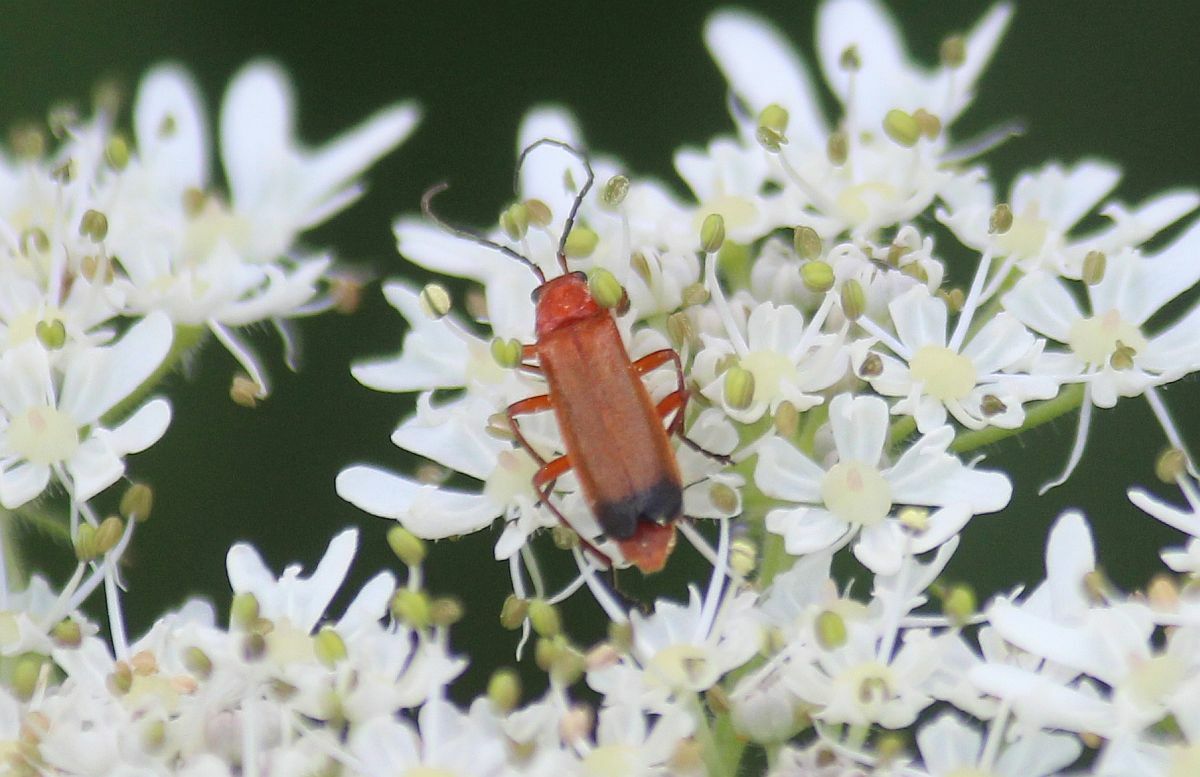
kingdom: Animalia
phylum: Arthropoda
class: Insecta
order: Coleoptera
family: Cantharidae
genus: Rhagonycha
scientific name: Rhagonycha fulva
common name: Common red soldier beetle
